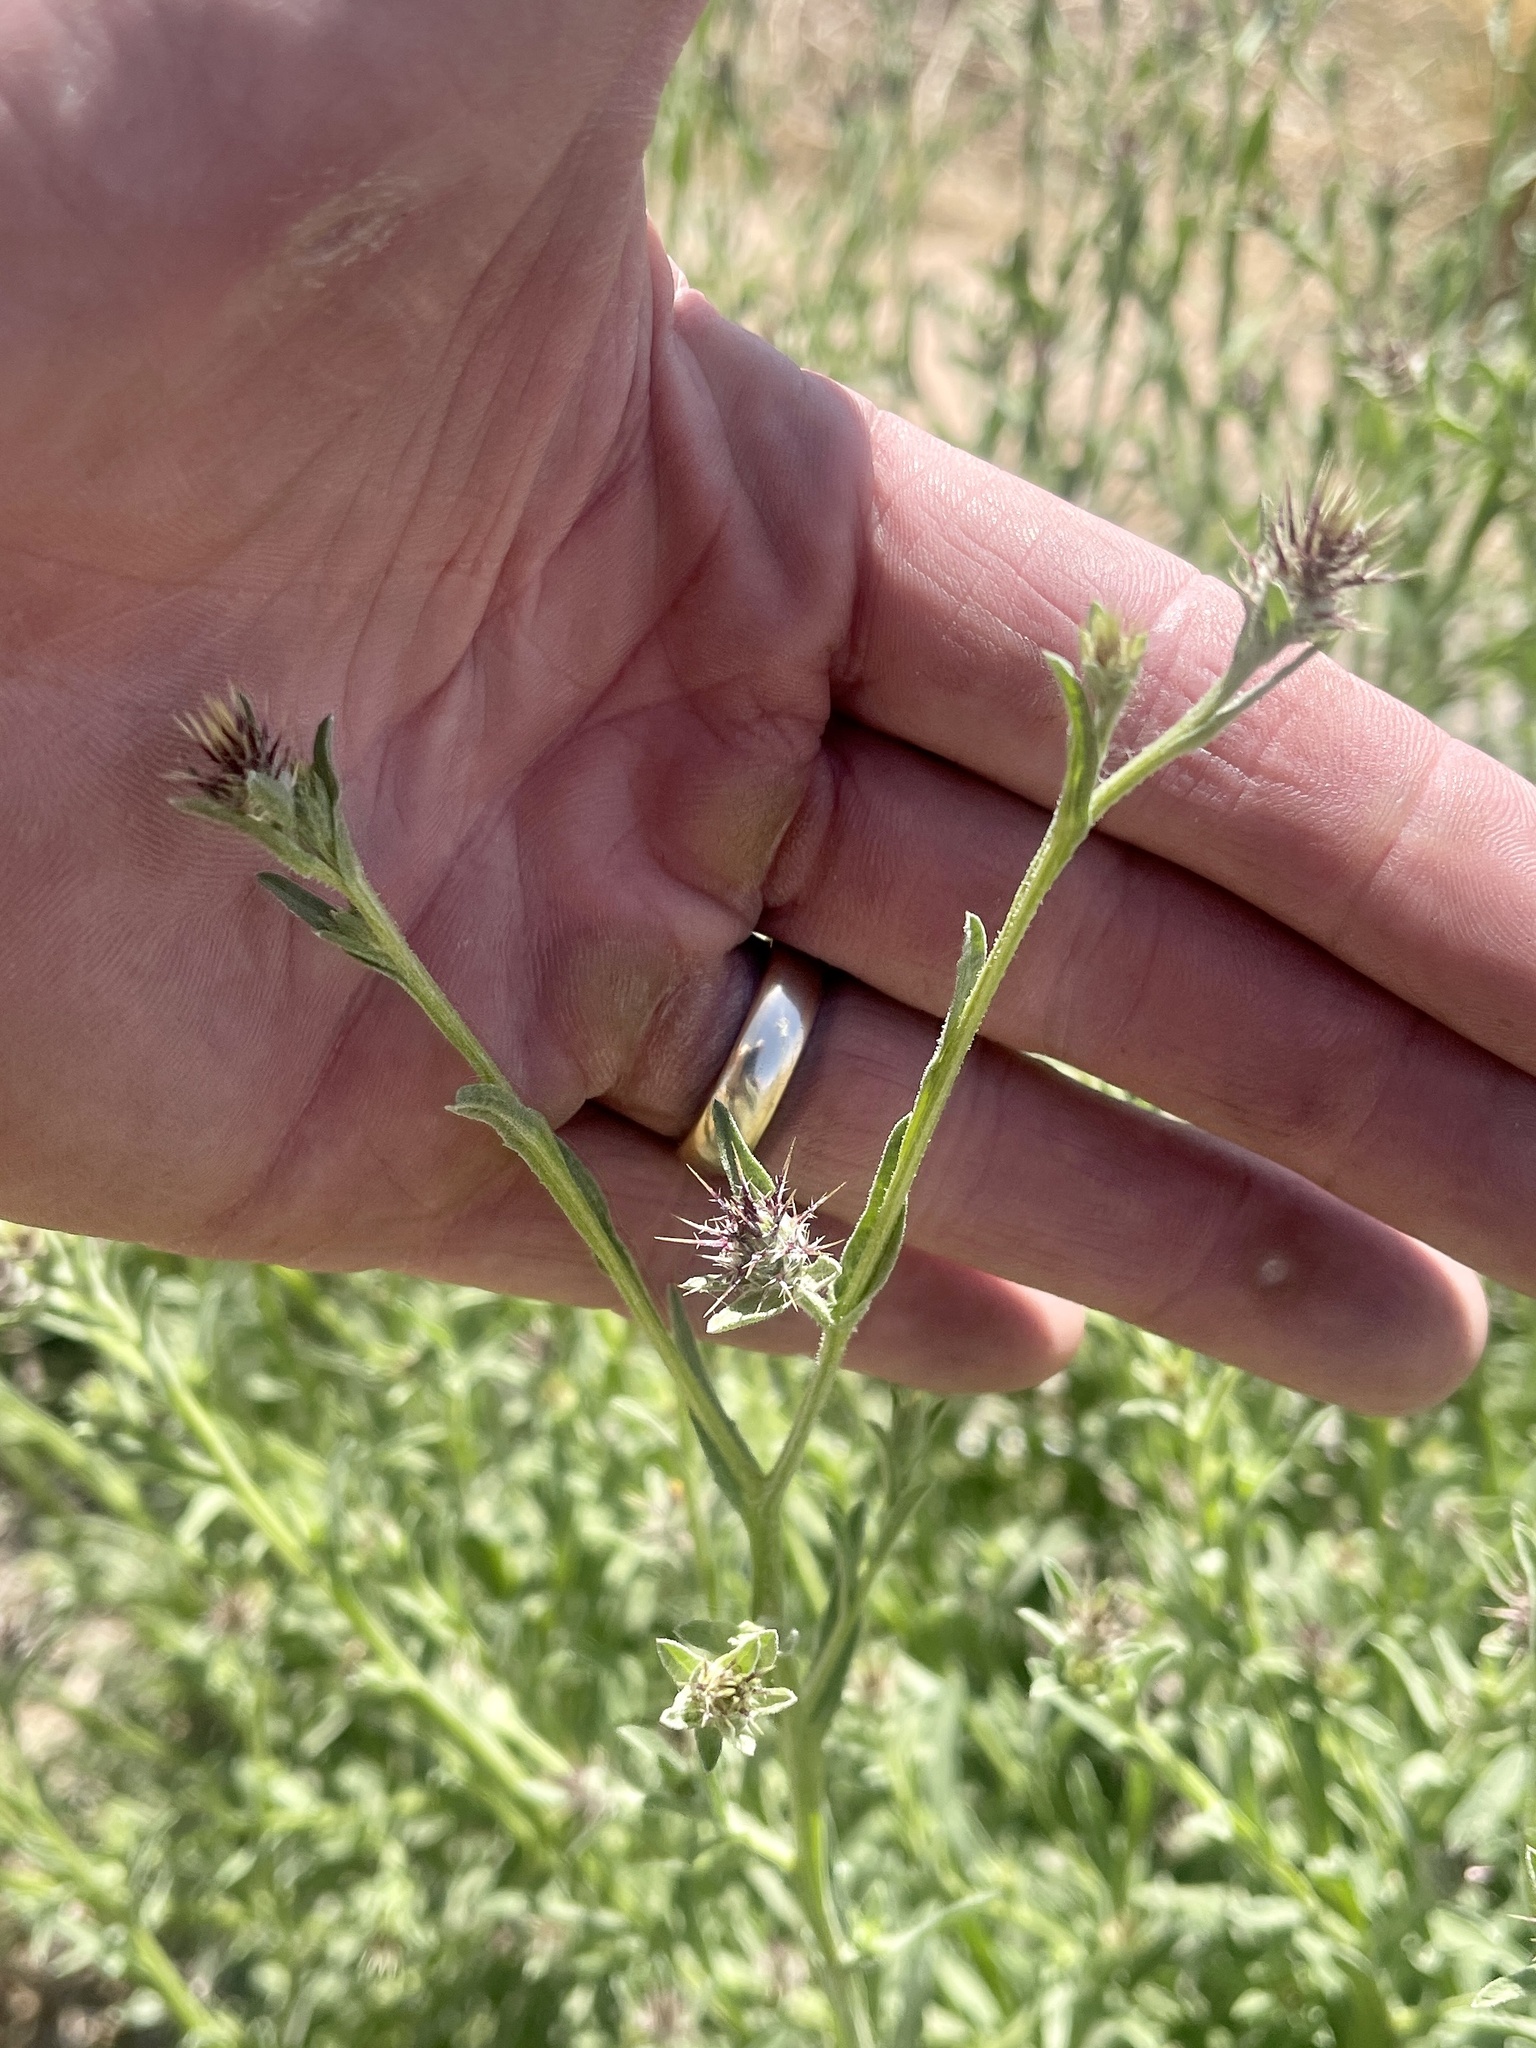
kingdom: Plantae
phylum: Tracheophyta
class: Magnoliopsida
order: Asterales
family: Asteraceae
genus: Centaurea
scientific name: Centaurea melitensis
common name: Maltese star-thistle
